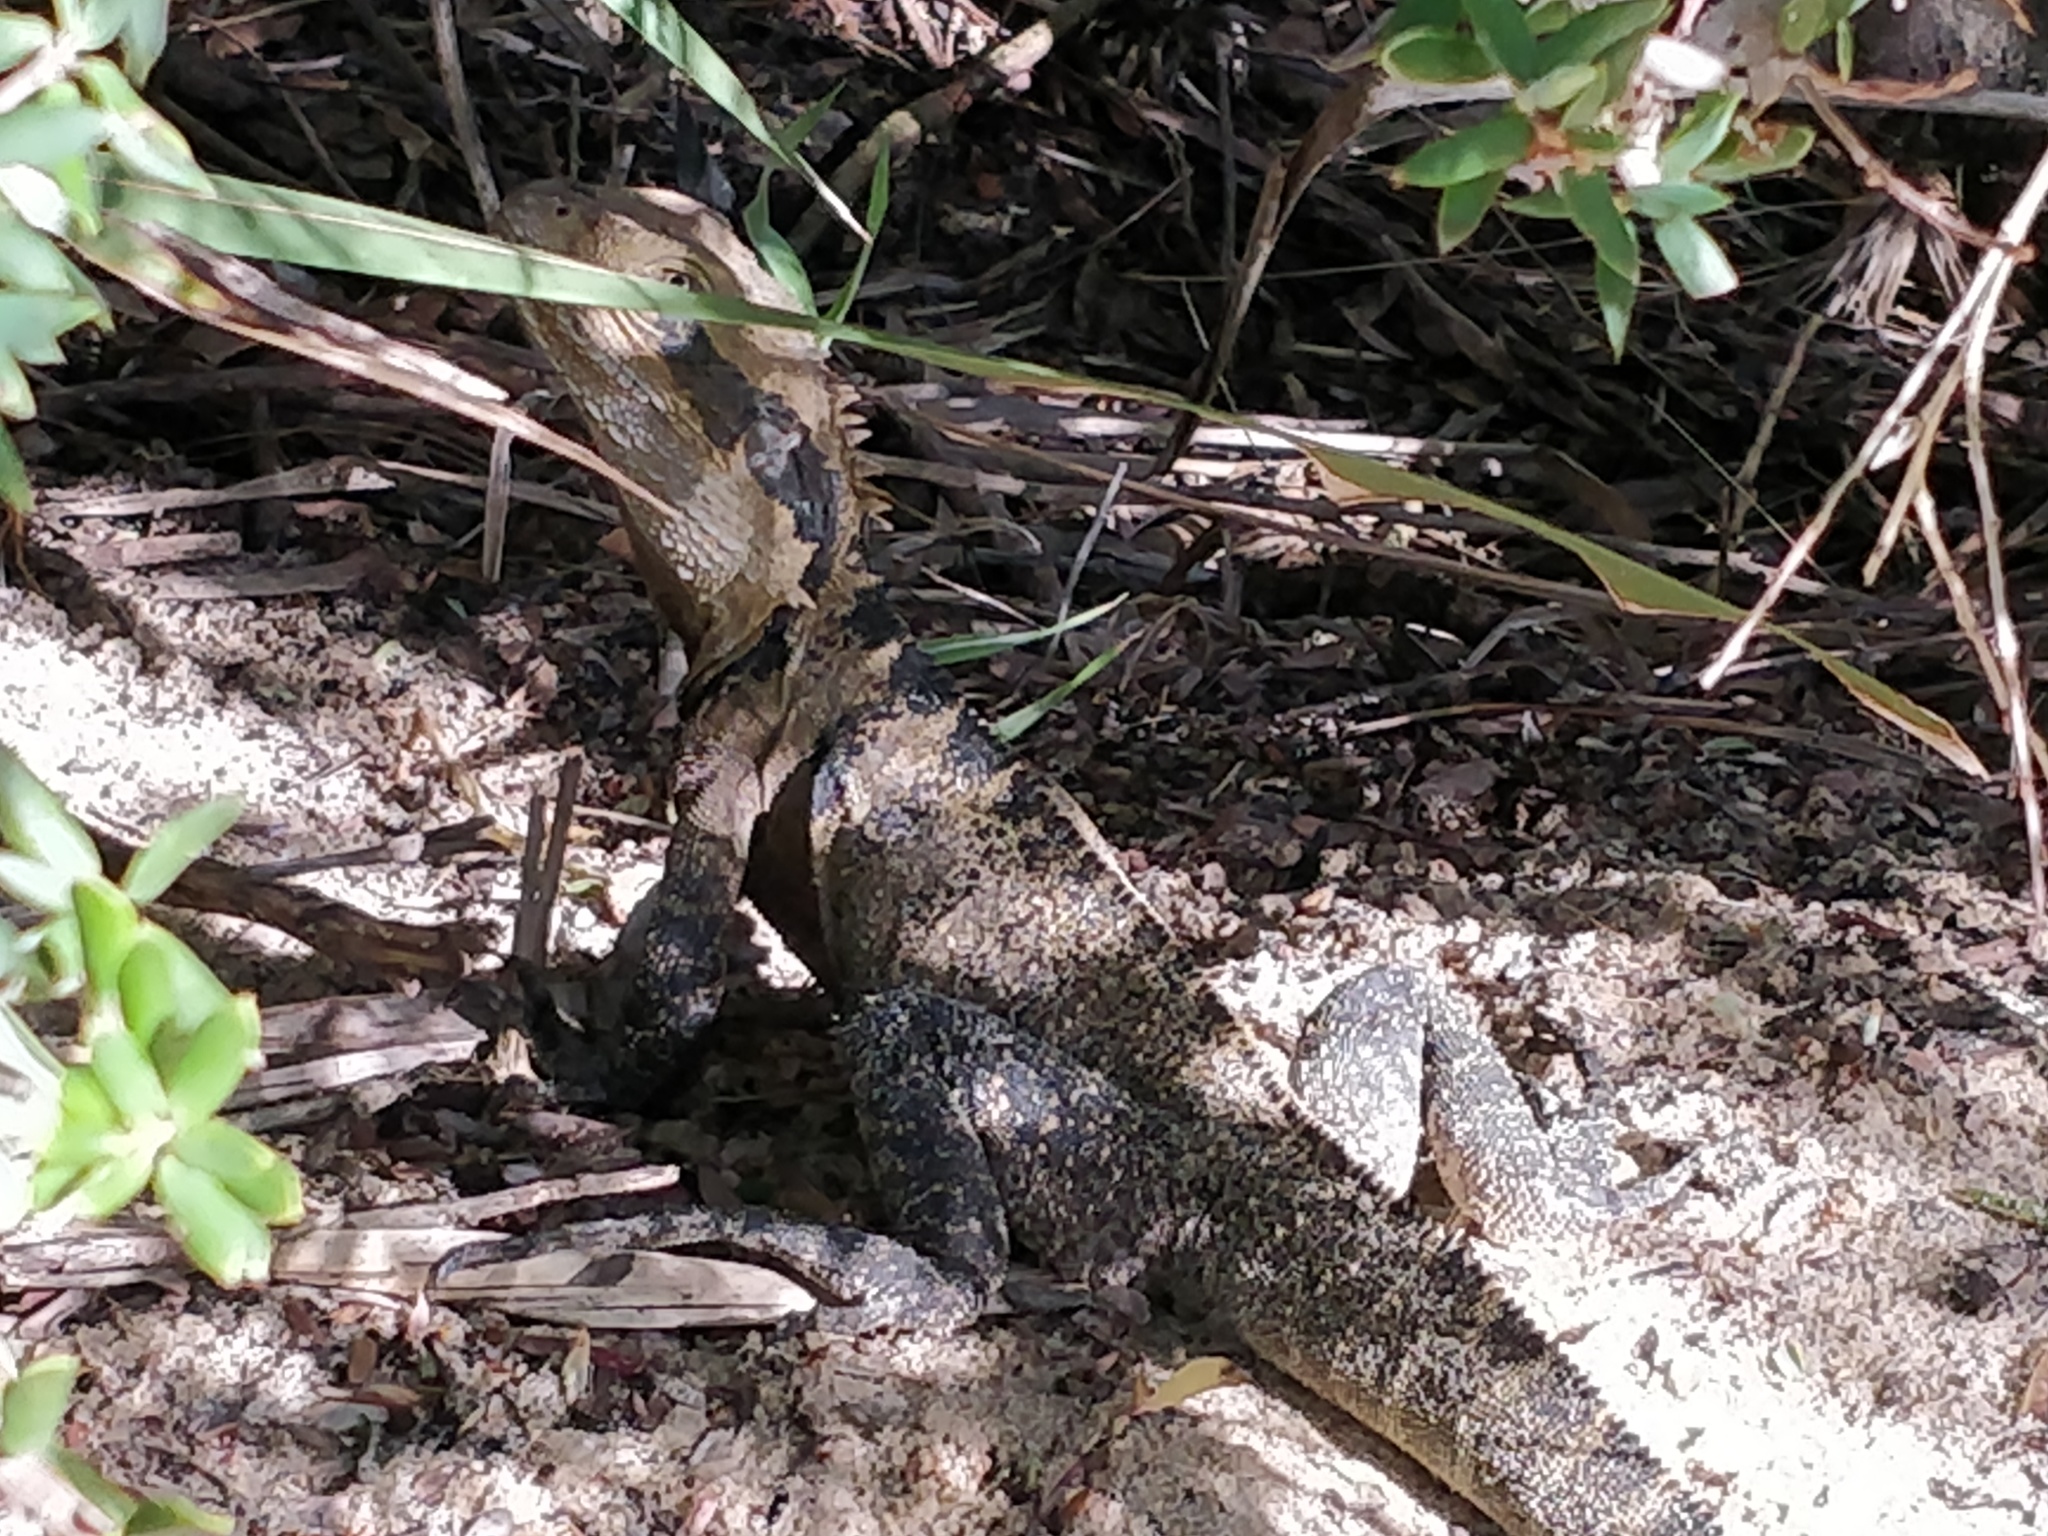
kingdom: Animalia
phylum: Chordata
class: Squamata
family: Agamidae
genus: Intellagama
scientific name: Intellagama lesueurii
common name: Eastern water dragon
